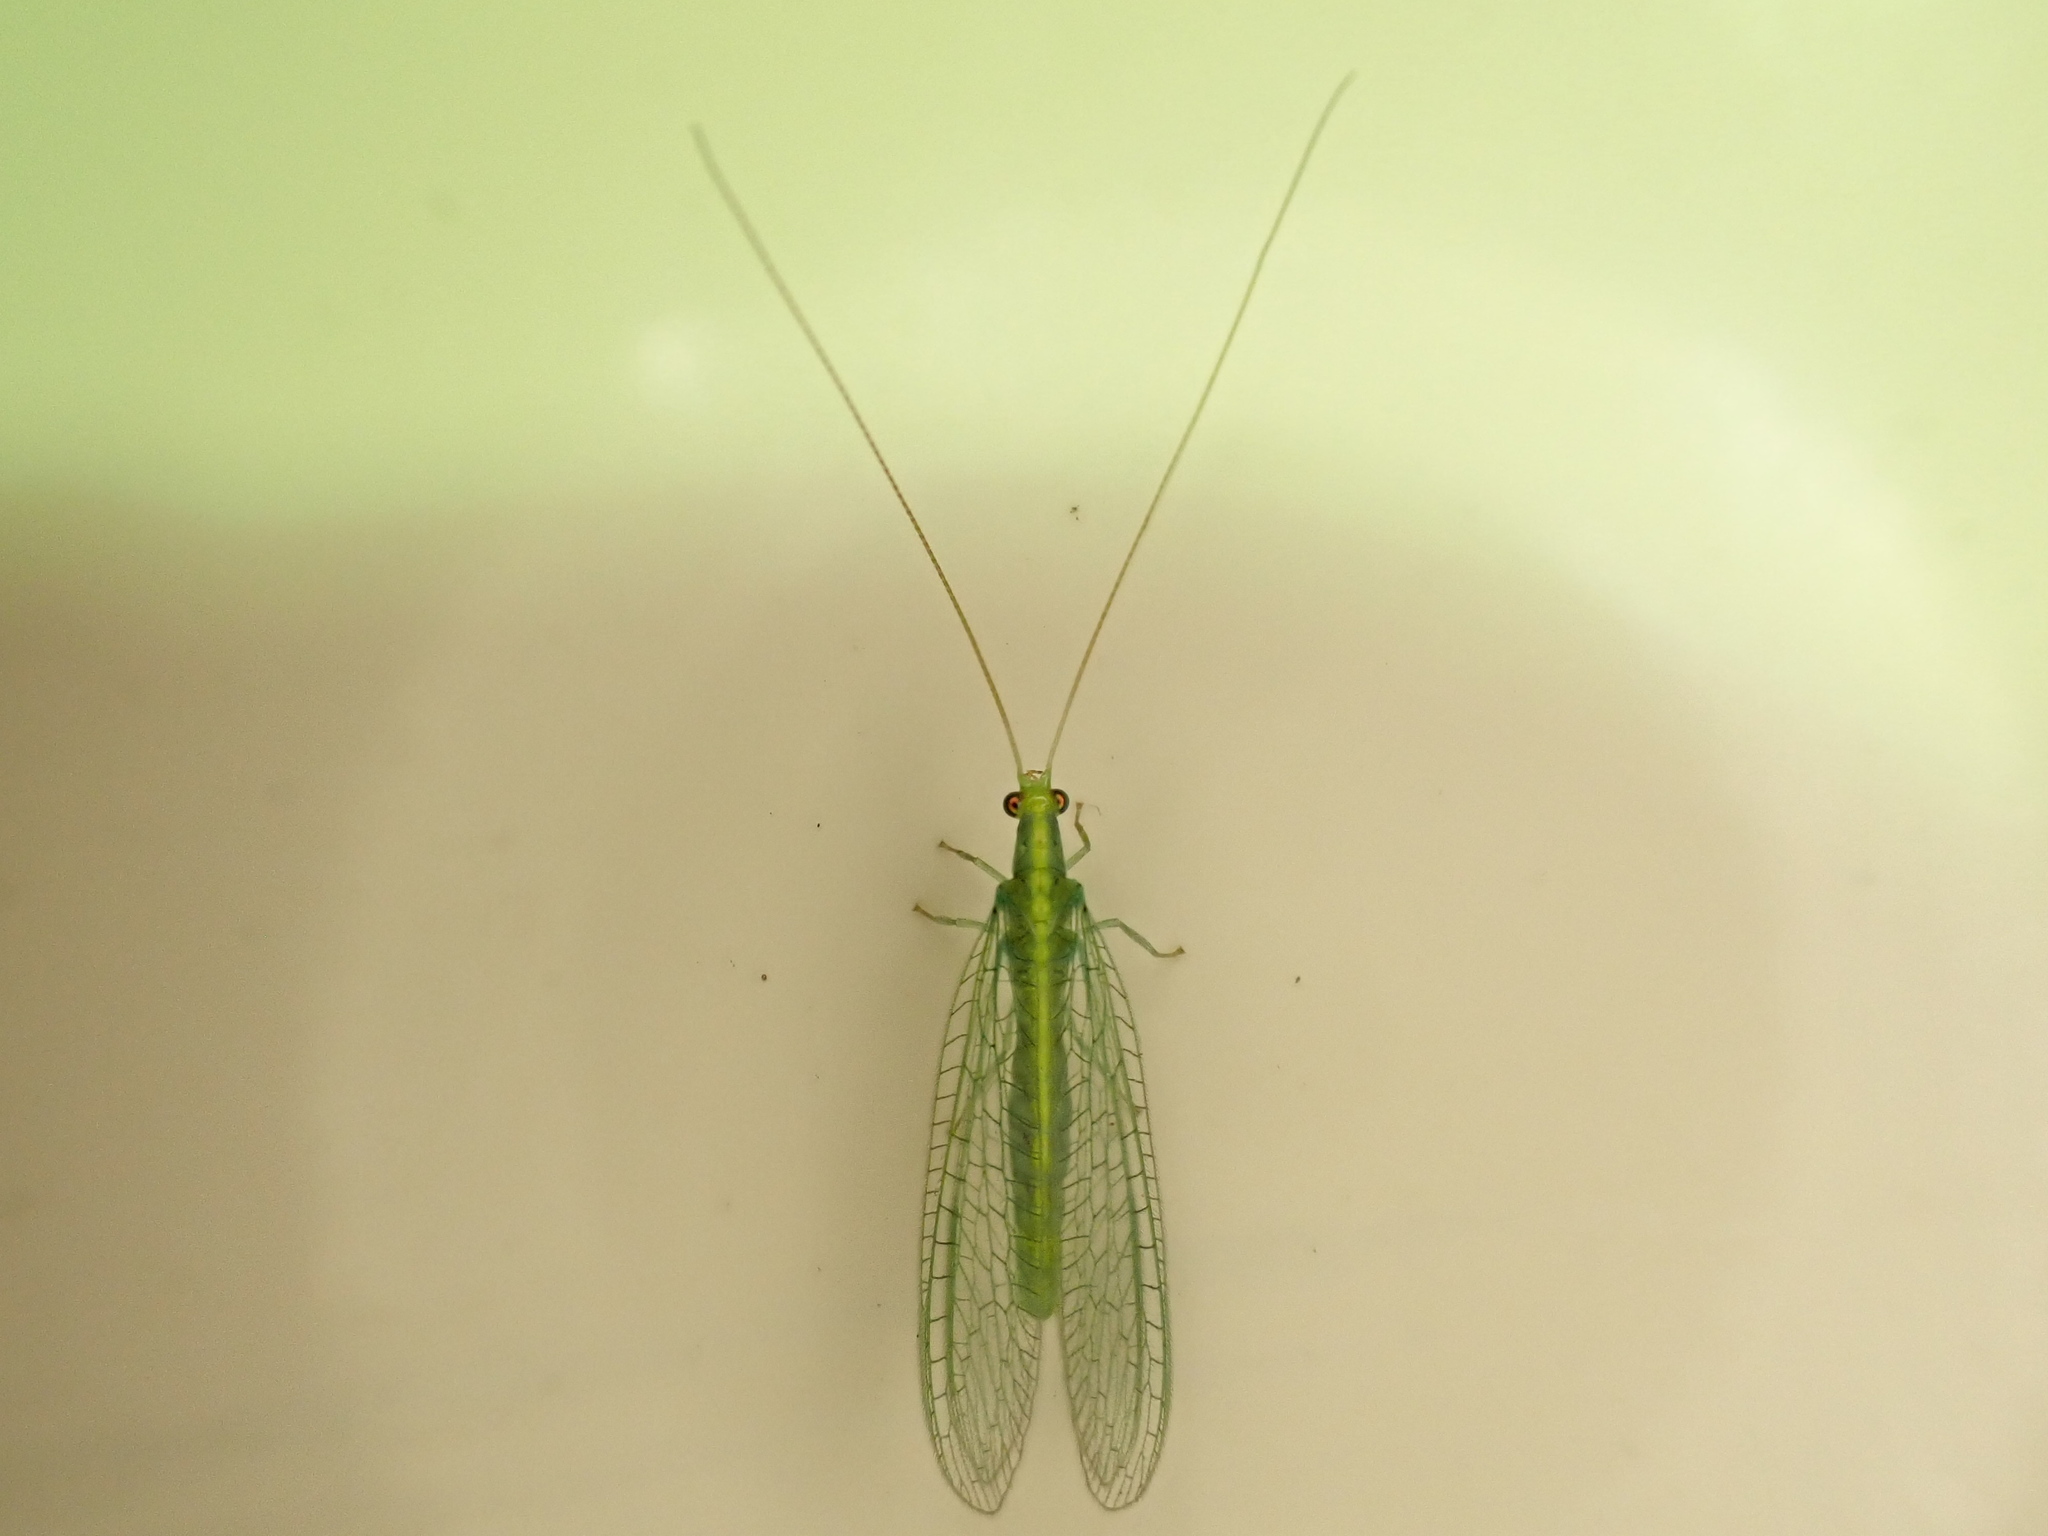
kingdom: Animalia
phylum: Arthropoda
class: Insecta
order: Neuroptera
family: Chrysopidae
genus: Mallada
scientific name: Mallada basalis
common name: Green lacewing
